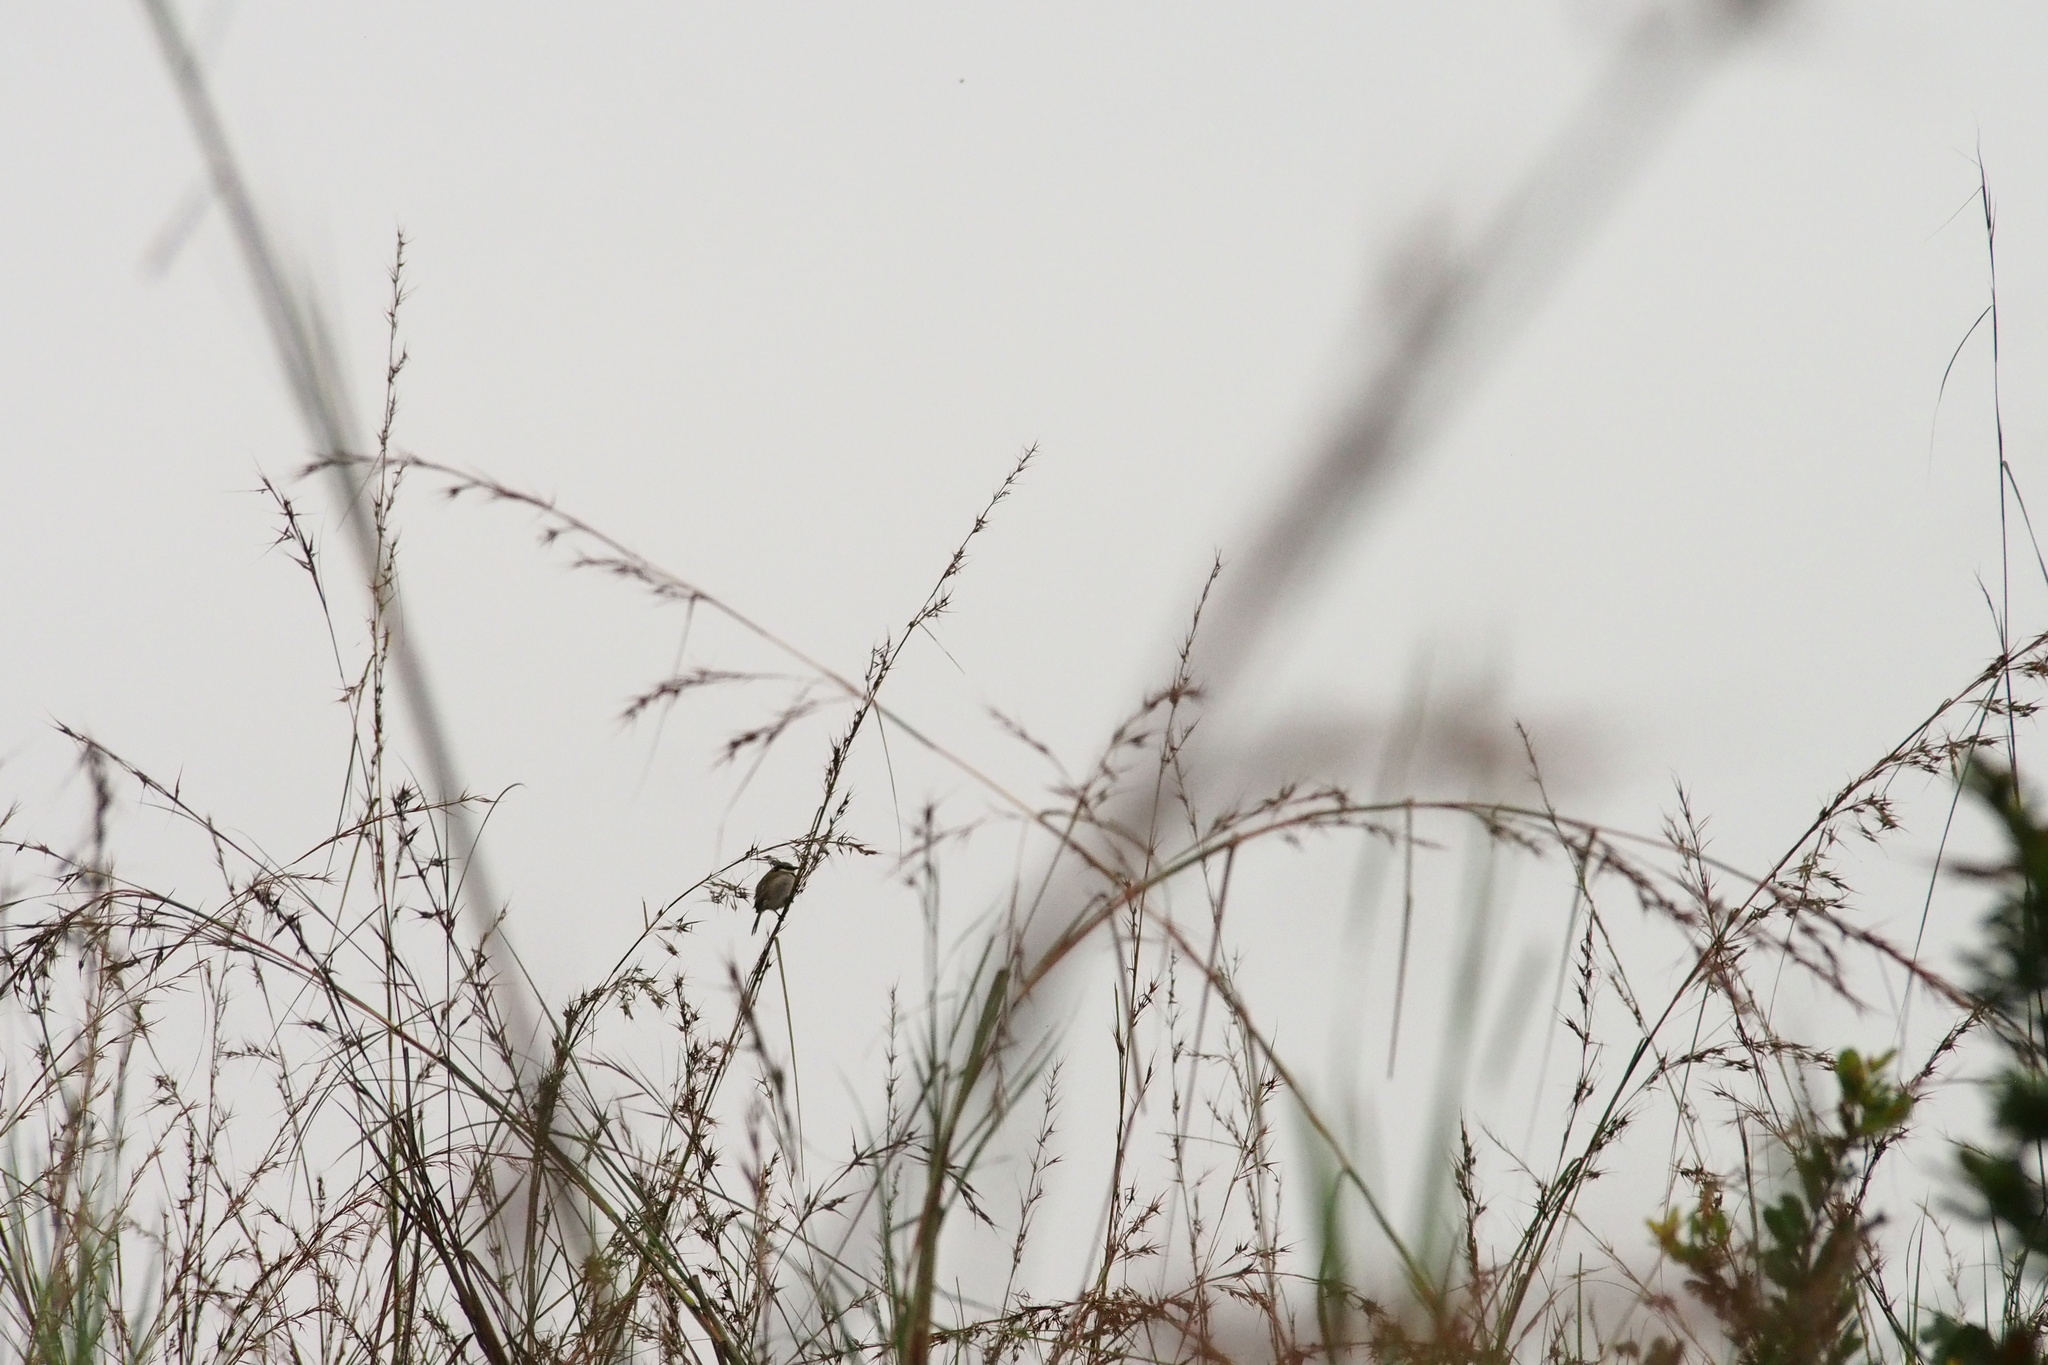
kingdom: Animalia
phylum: Chordata
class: Aves
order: Passeriformes
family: Pycnonotidae
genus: Neolestes
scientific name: Neolestes torquatus
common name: Black-collared bulbul
